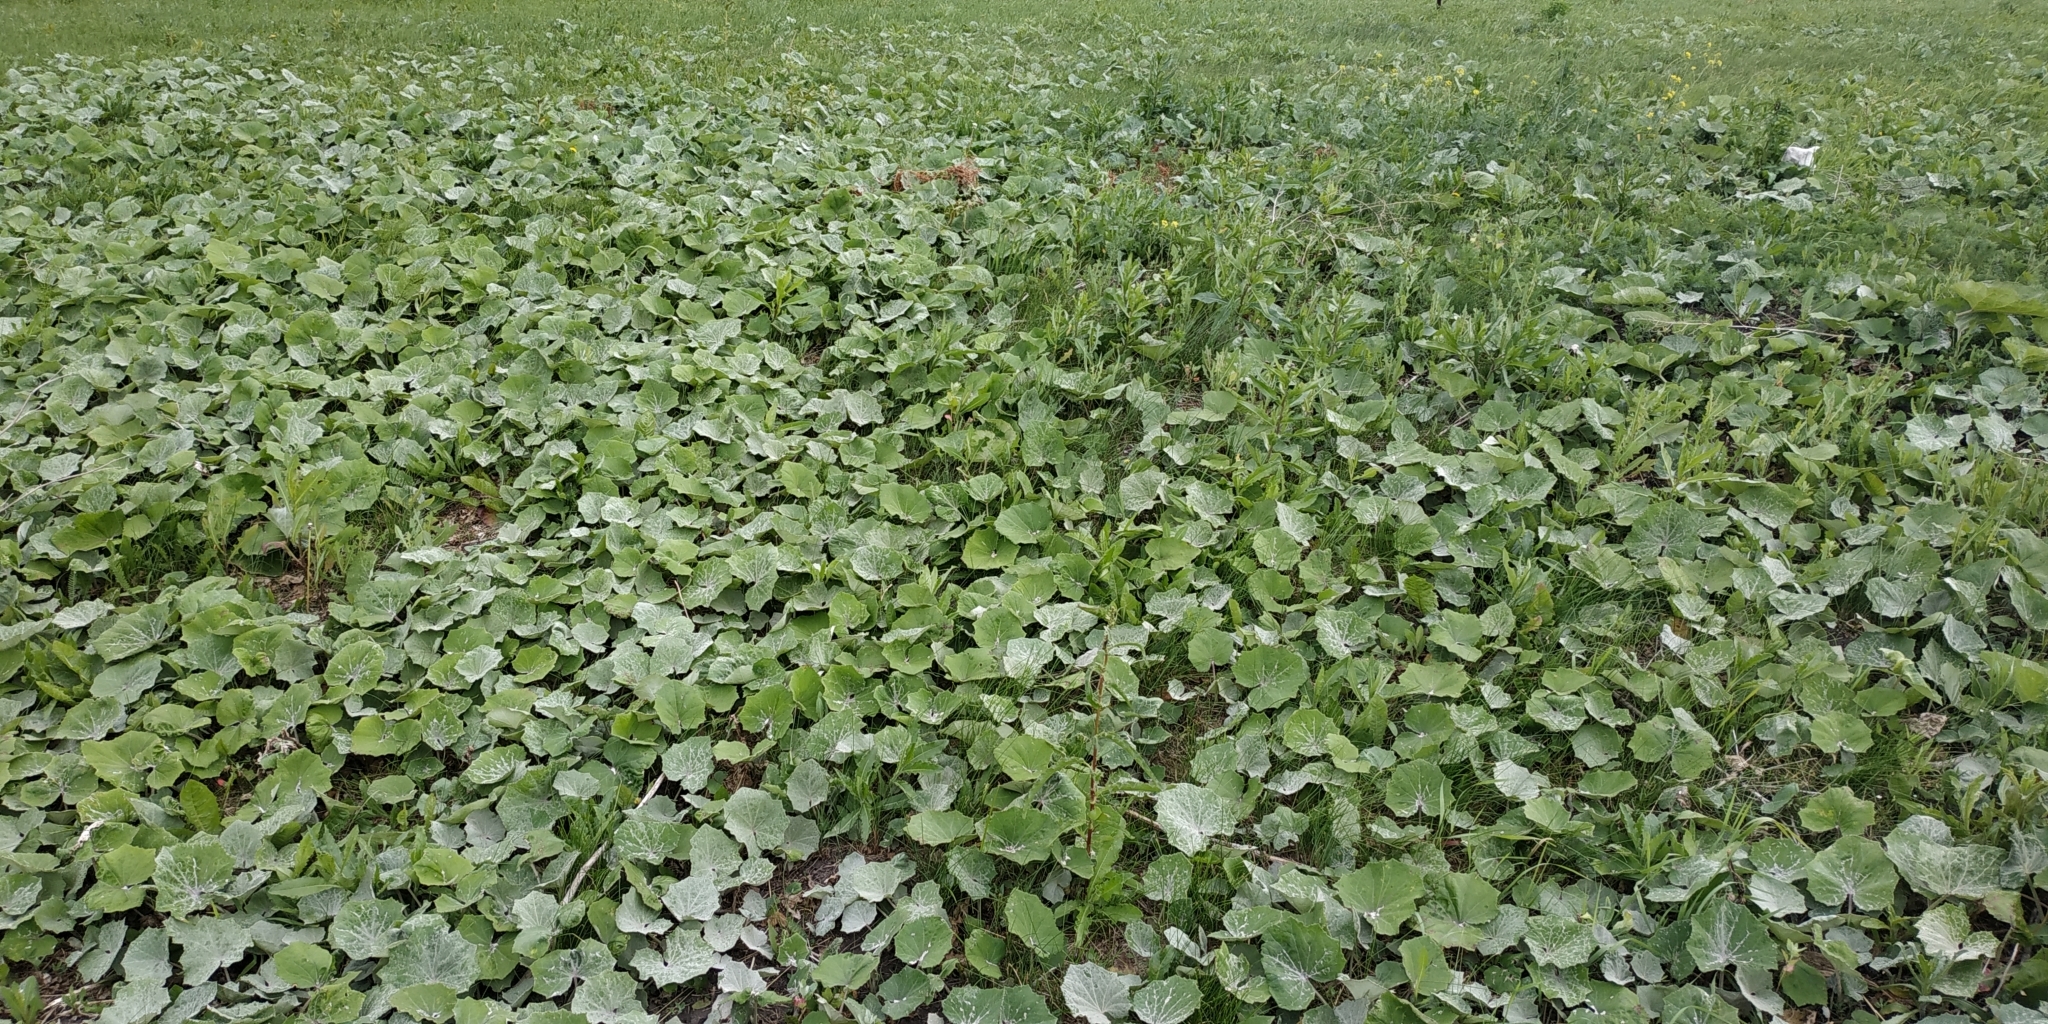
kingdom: Plantae
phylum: Tracheophyta
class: Magnoliopsida
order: Asterales
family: Asteraceae
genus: Tussilago
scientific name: Tussilago farfara
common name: Coltsfoot
